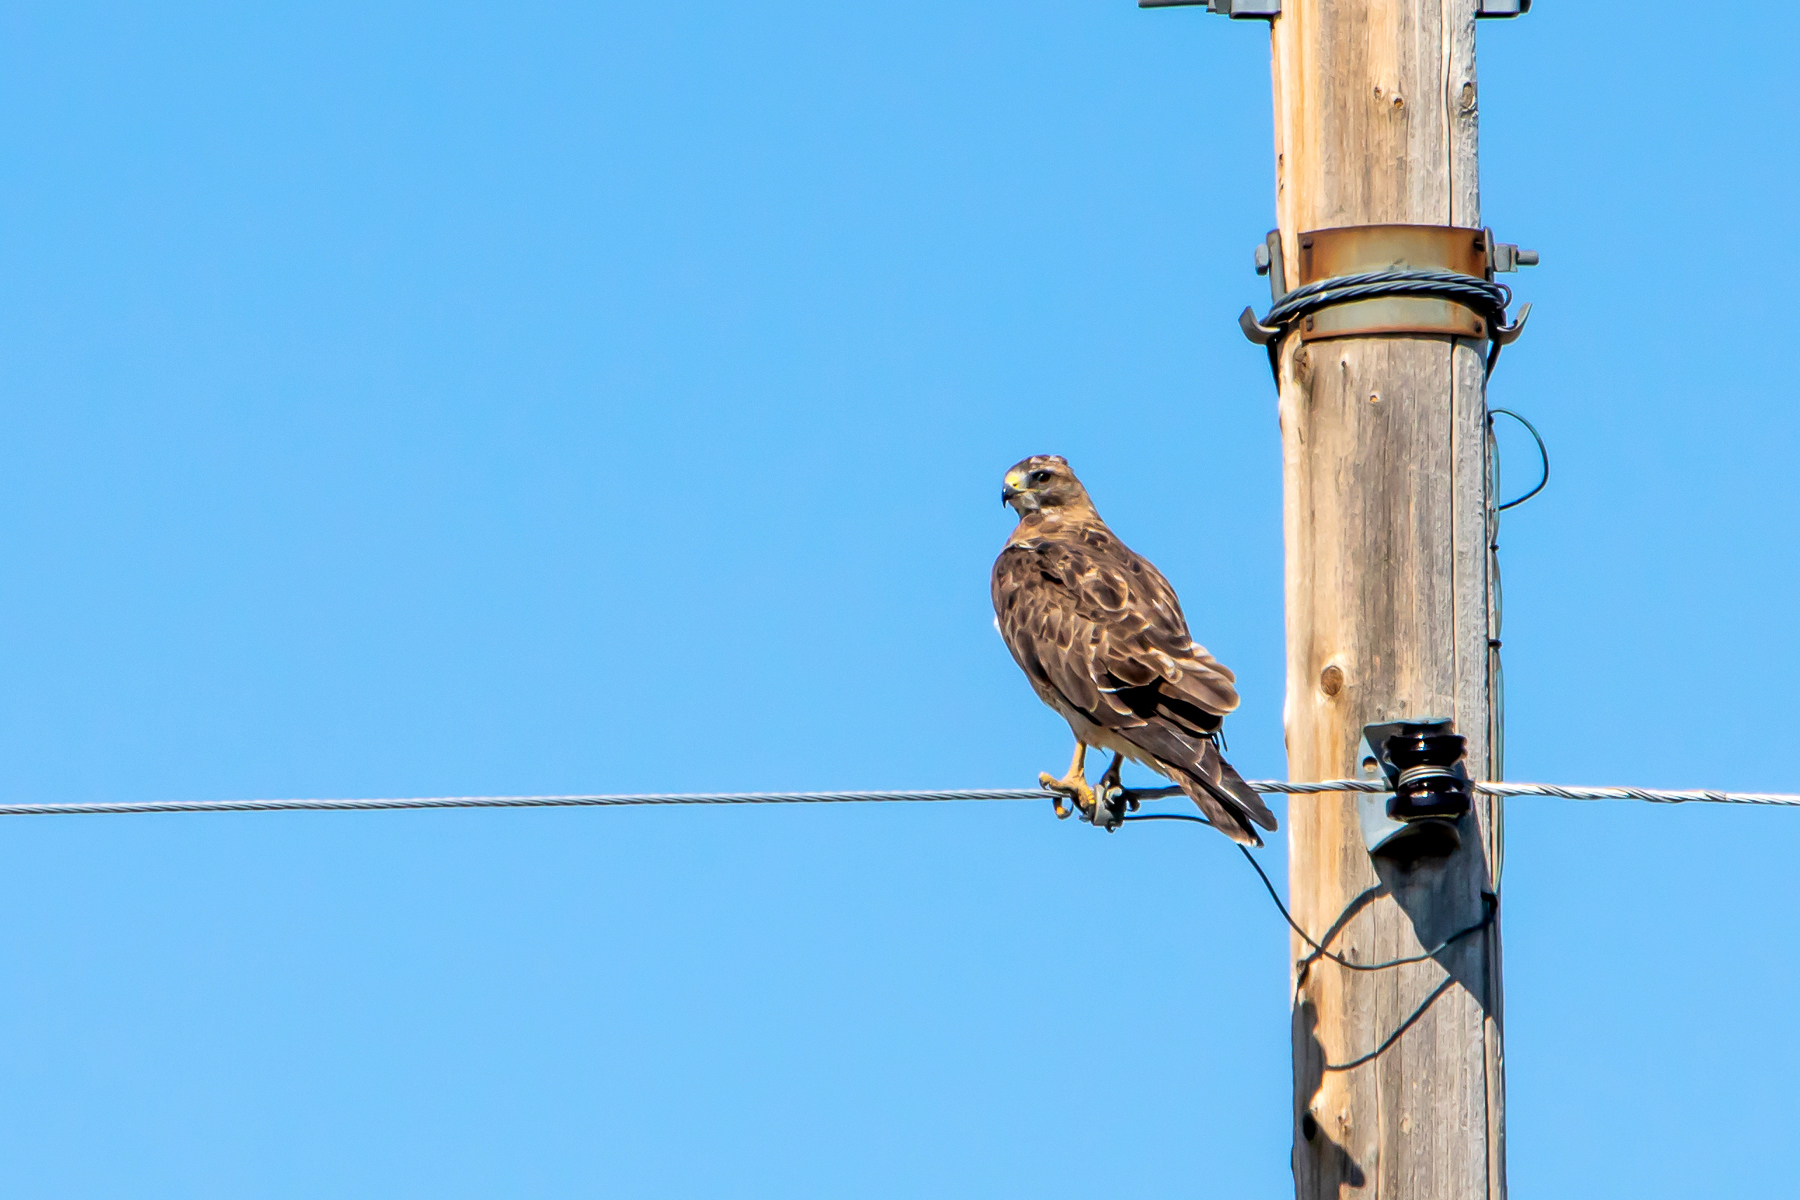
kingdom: Animalia
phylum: Chordata
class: Aves
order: Accipitriformes
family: Accipitridae
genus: Buteo
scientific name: Buteo swainsoni
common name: Swainson's hawk
